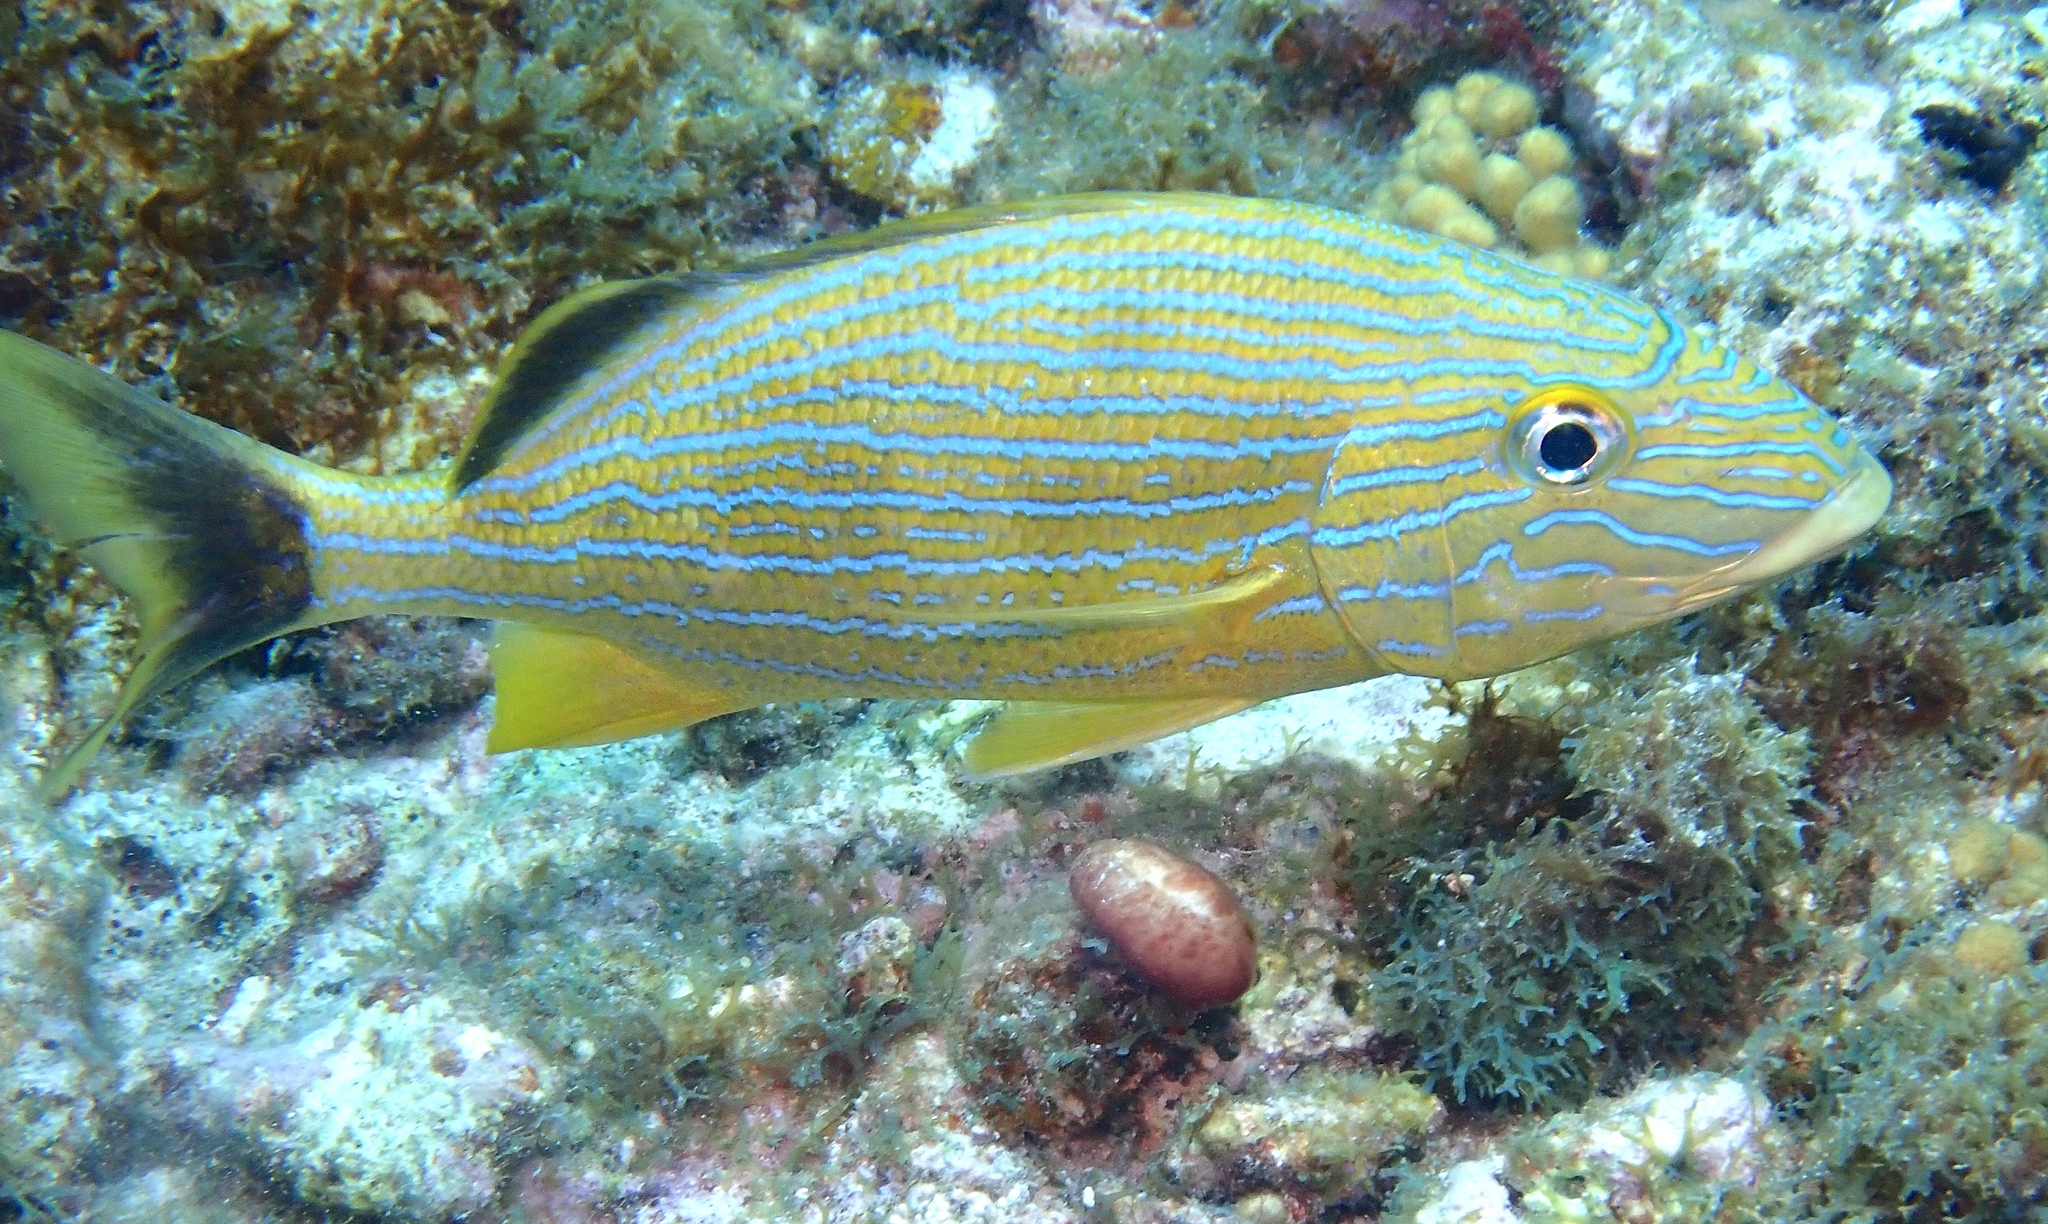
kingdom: Animalia
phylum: Chordata
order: Perciformes
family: Haemulidae
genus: Haemulon
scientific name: Haemulon sciurus
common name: Bluestriped grunt
